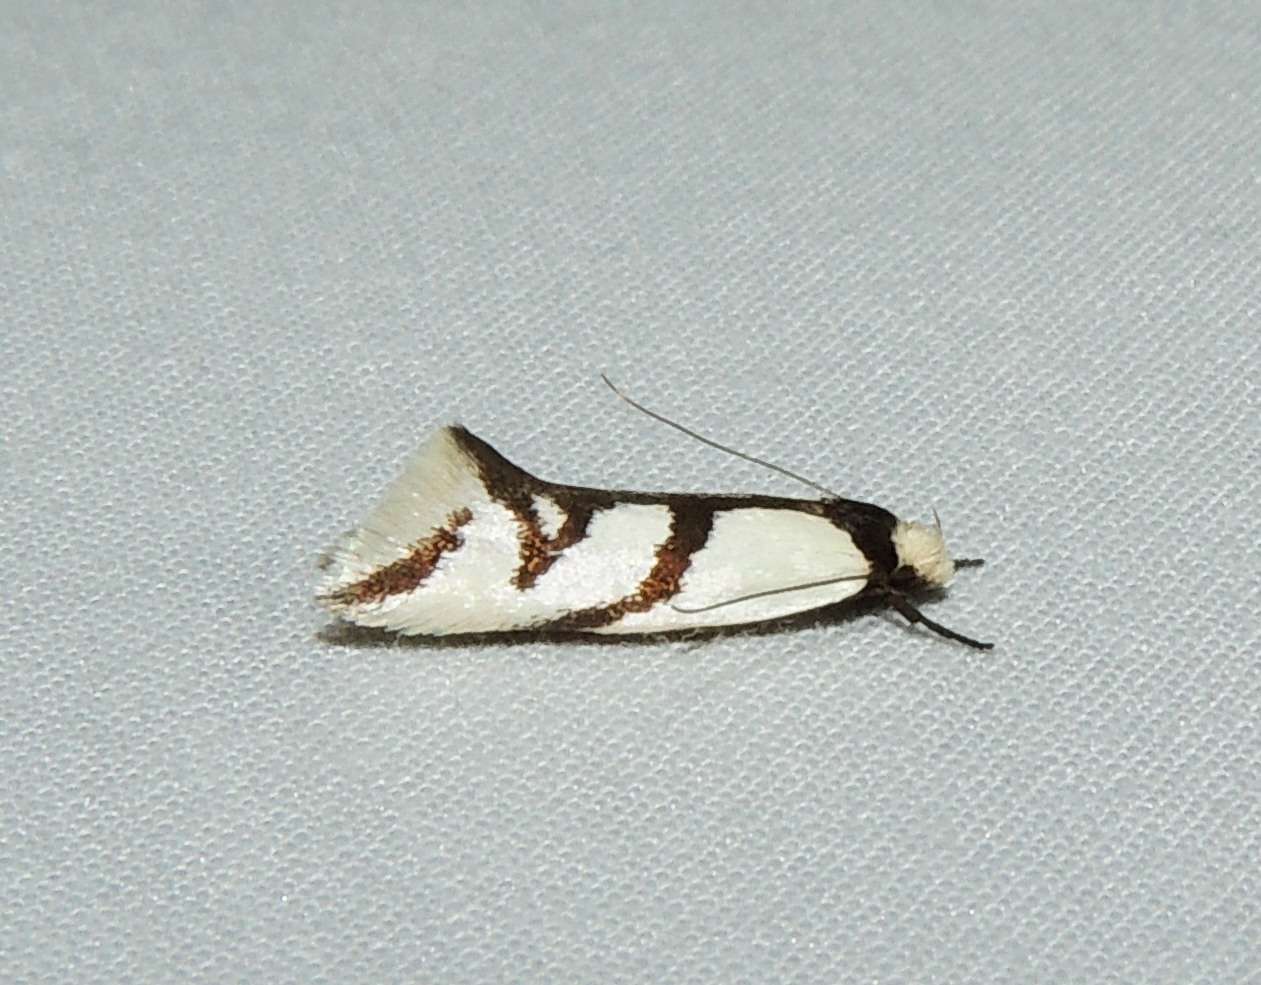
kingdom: Animalia
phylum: Arthropoda
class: Insecta
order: Lepidoptera
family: Oecophoridae
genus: Ocystola
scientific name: Ocystola paulinella
